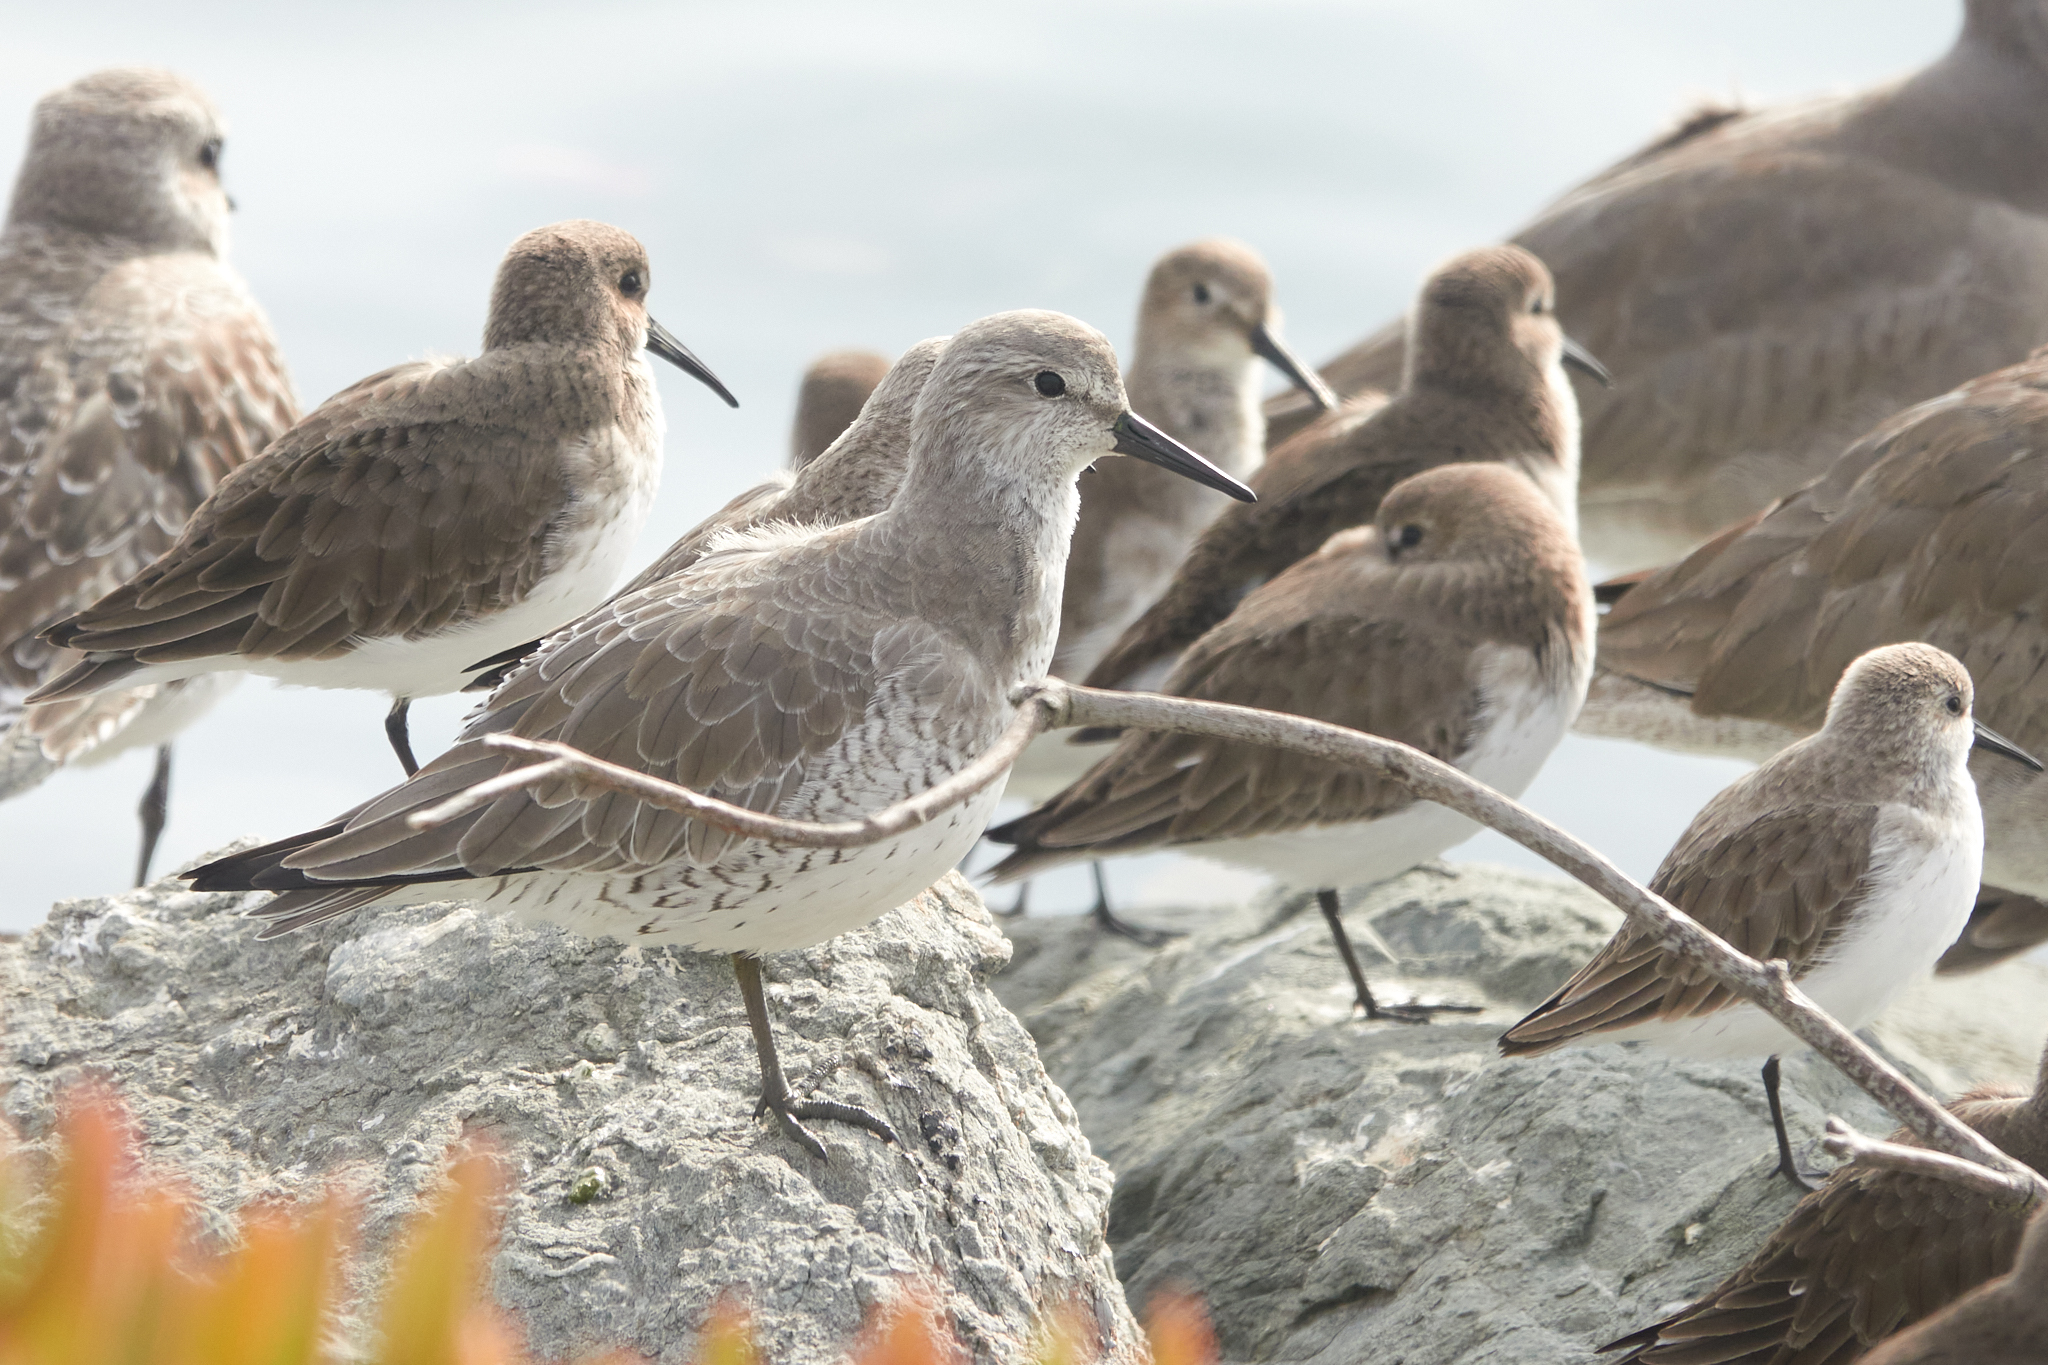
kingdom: Animalia
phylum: Chordata
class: Aves
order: Charadriiformes
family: Scolopacidae
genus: Calidris
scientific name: Calidris canutus
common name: Red knot
